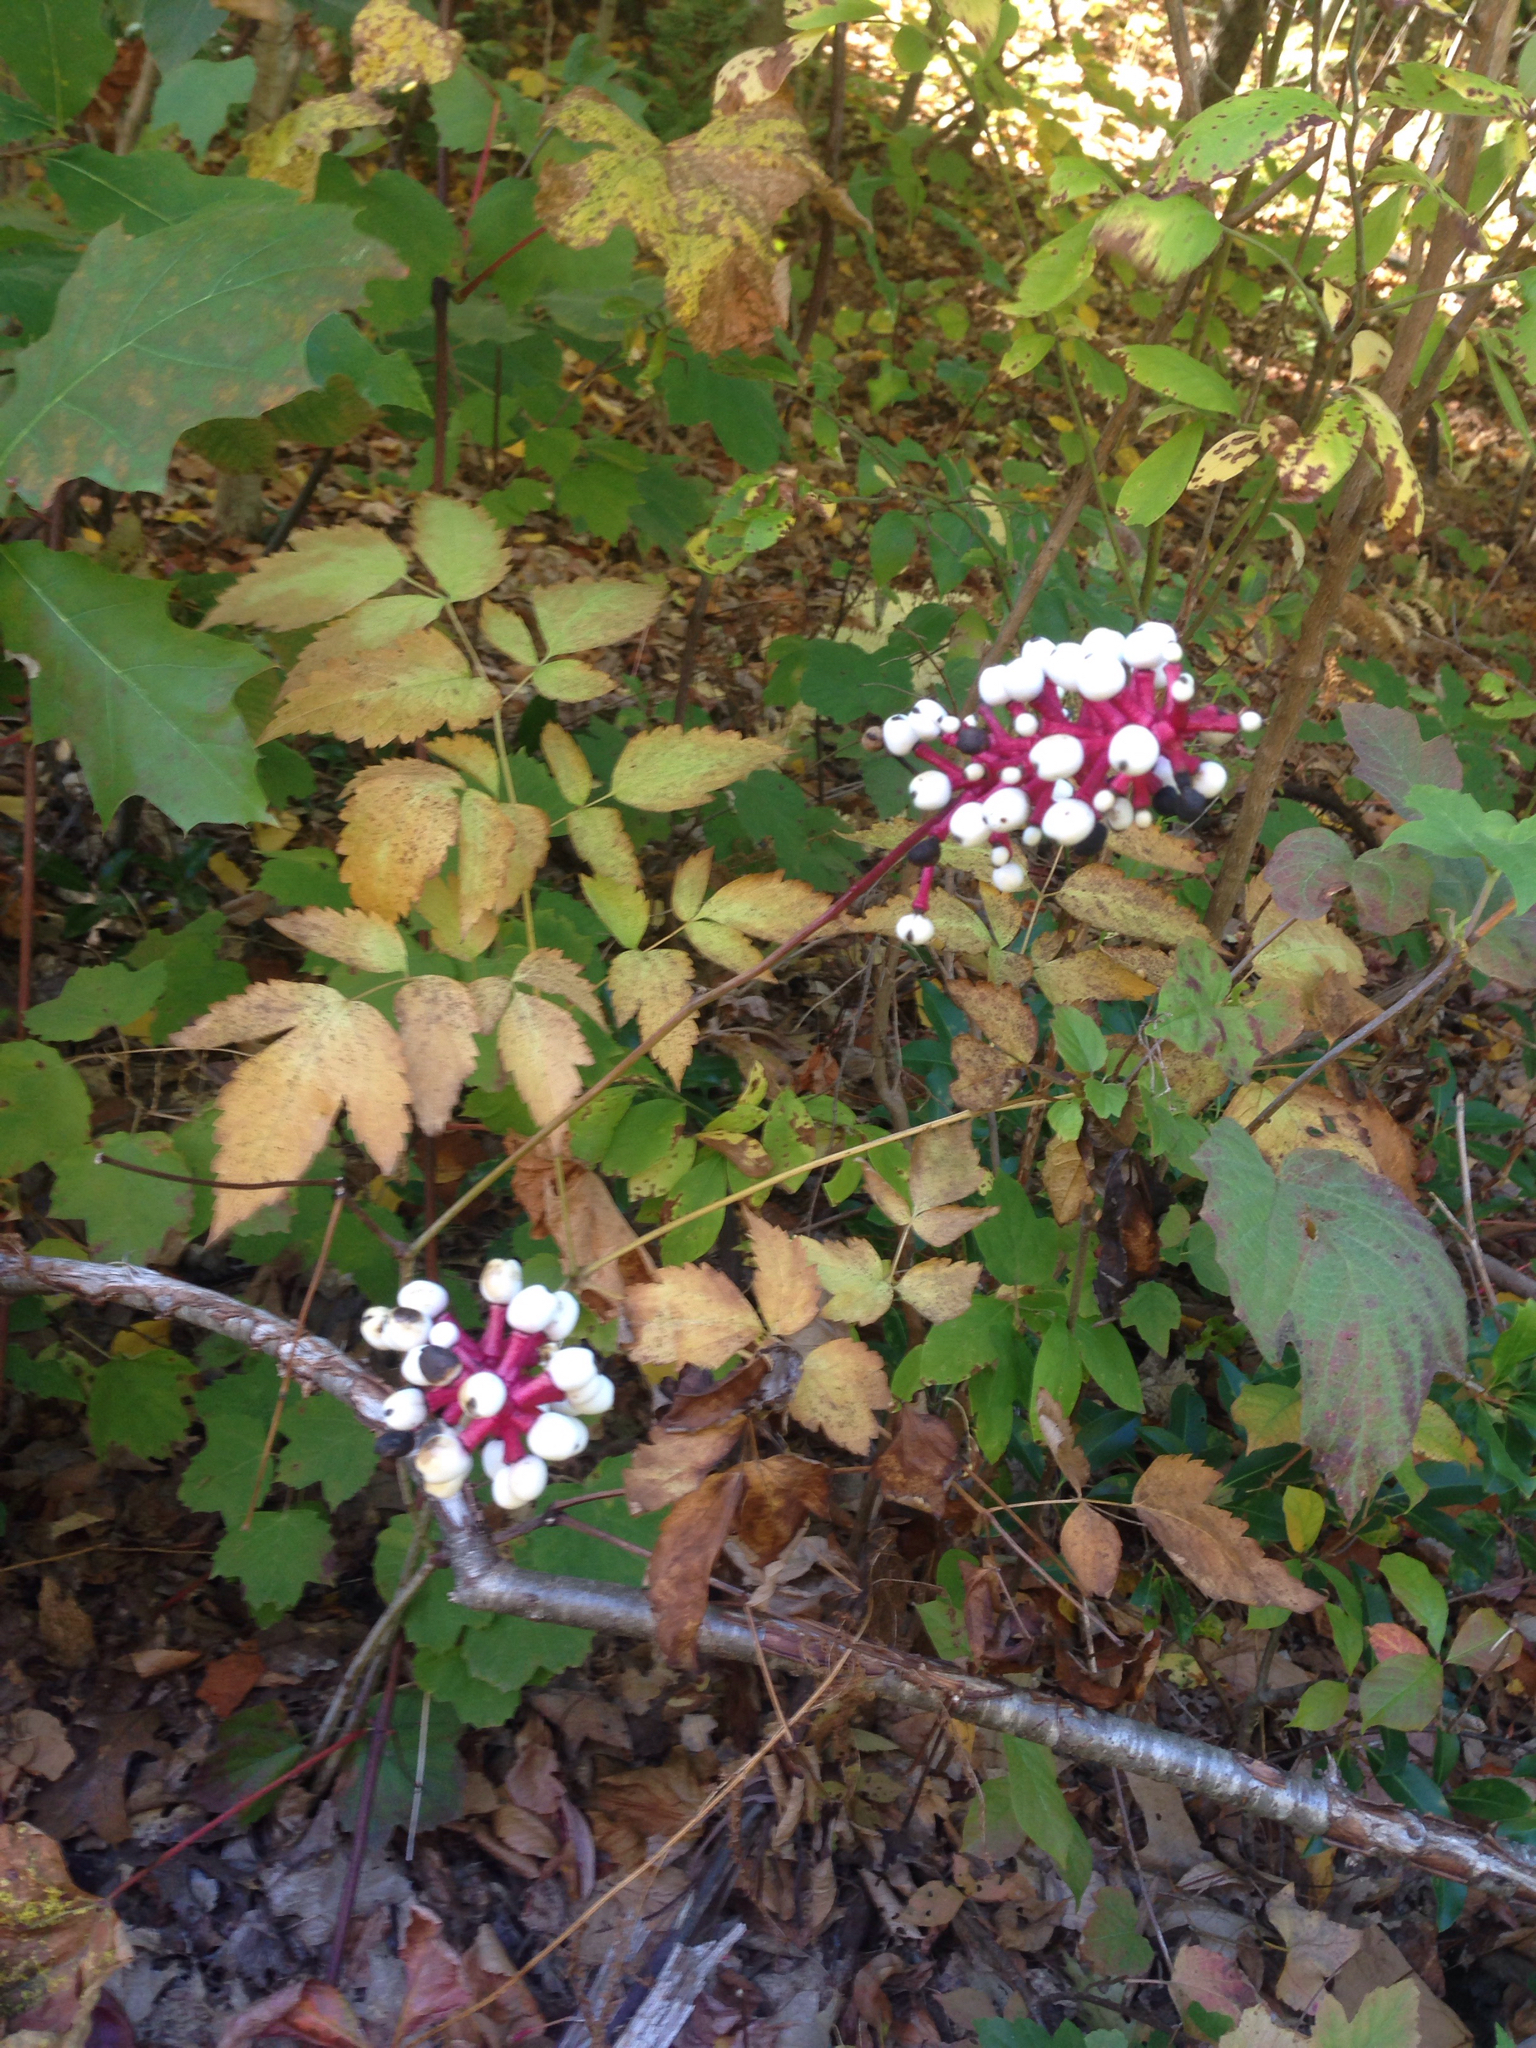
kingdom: Plantae
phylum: Tracheophyta
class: Magnoliopsida
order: Ranunculales
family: Ranunculaceae
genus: Actaea
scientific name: Actaea pachypoda
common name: Doll's-eyes
